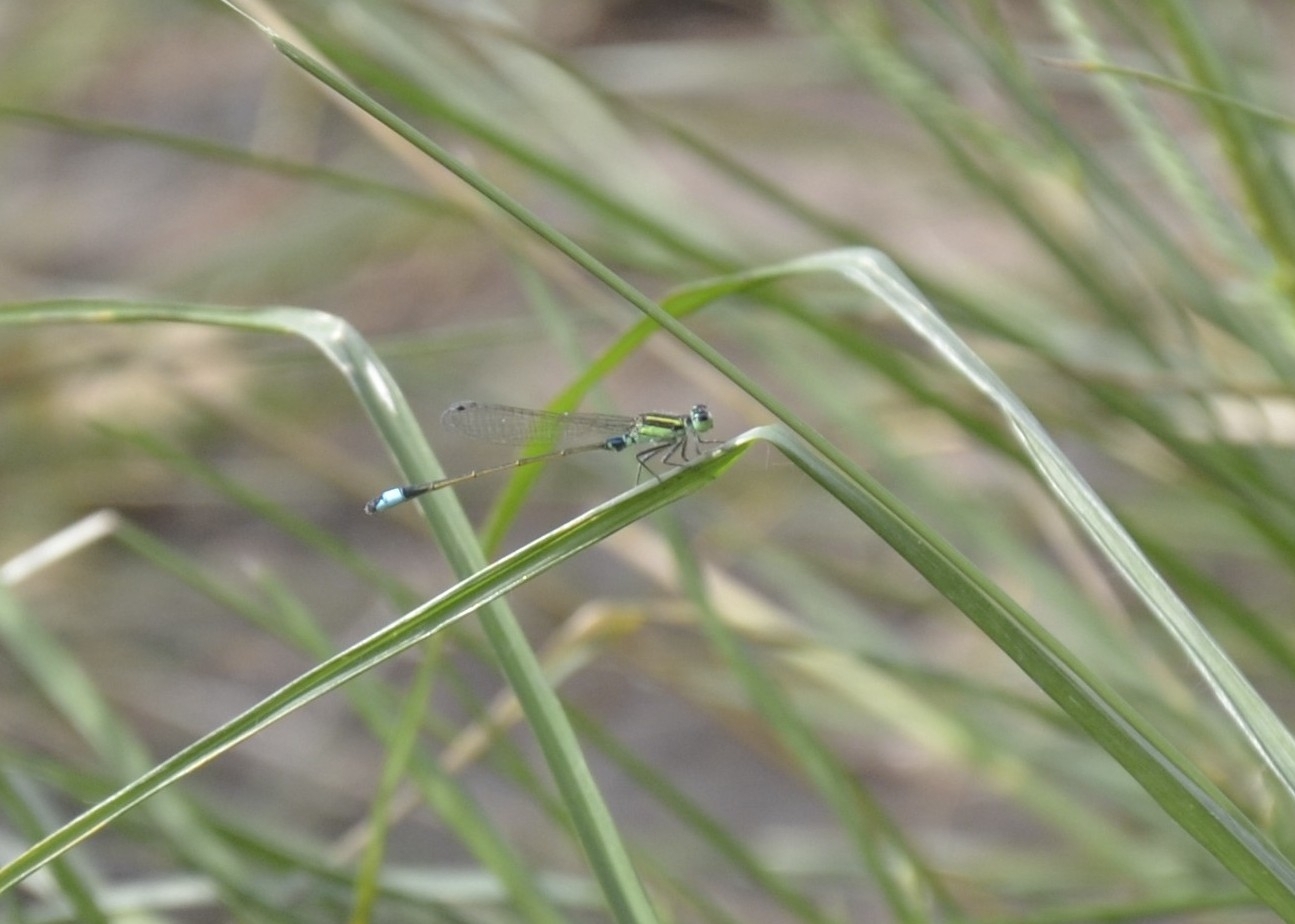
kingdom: Animalia
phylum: Arthropoda
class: Insecta
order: Odonata
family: Coenagrionidae
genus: Ischnura
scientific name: Ischnura senegalensis
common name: Tropical bluetail
